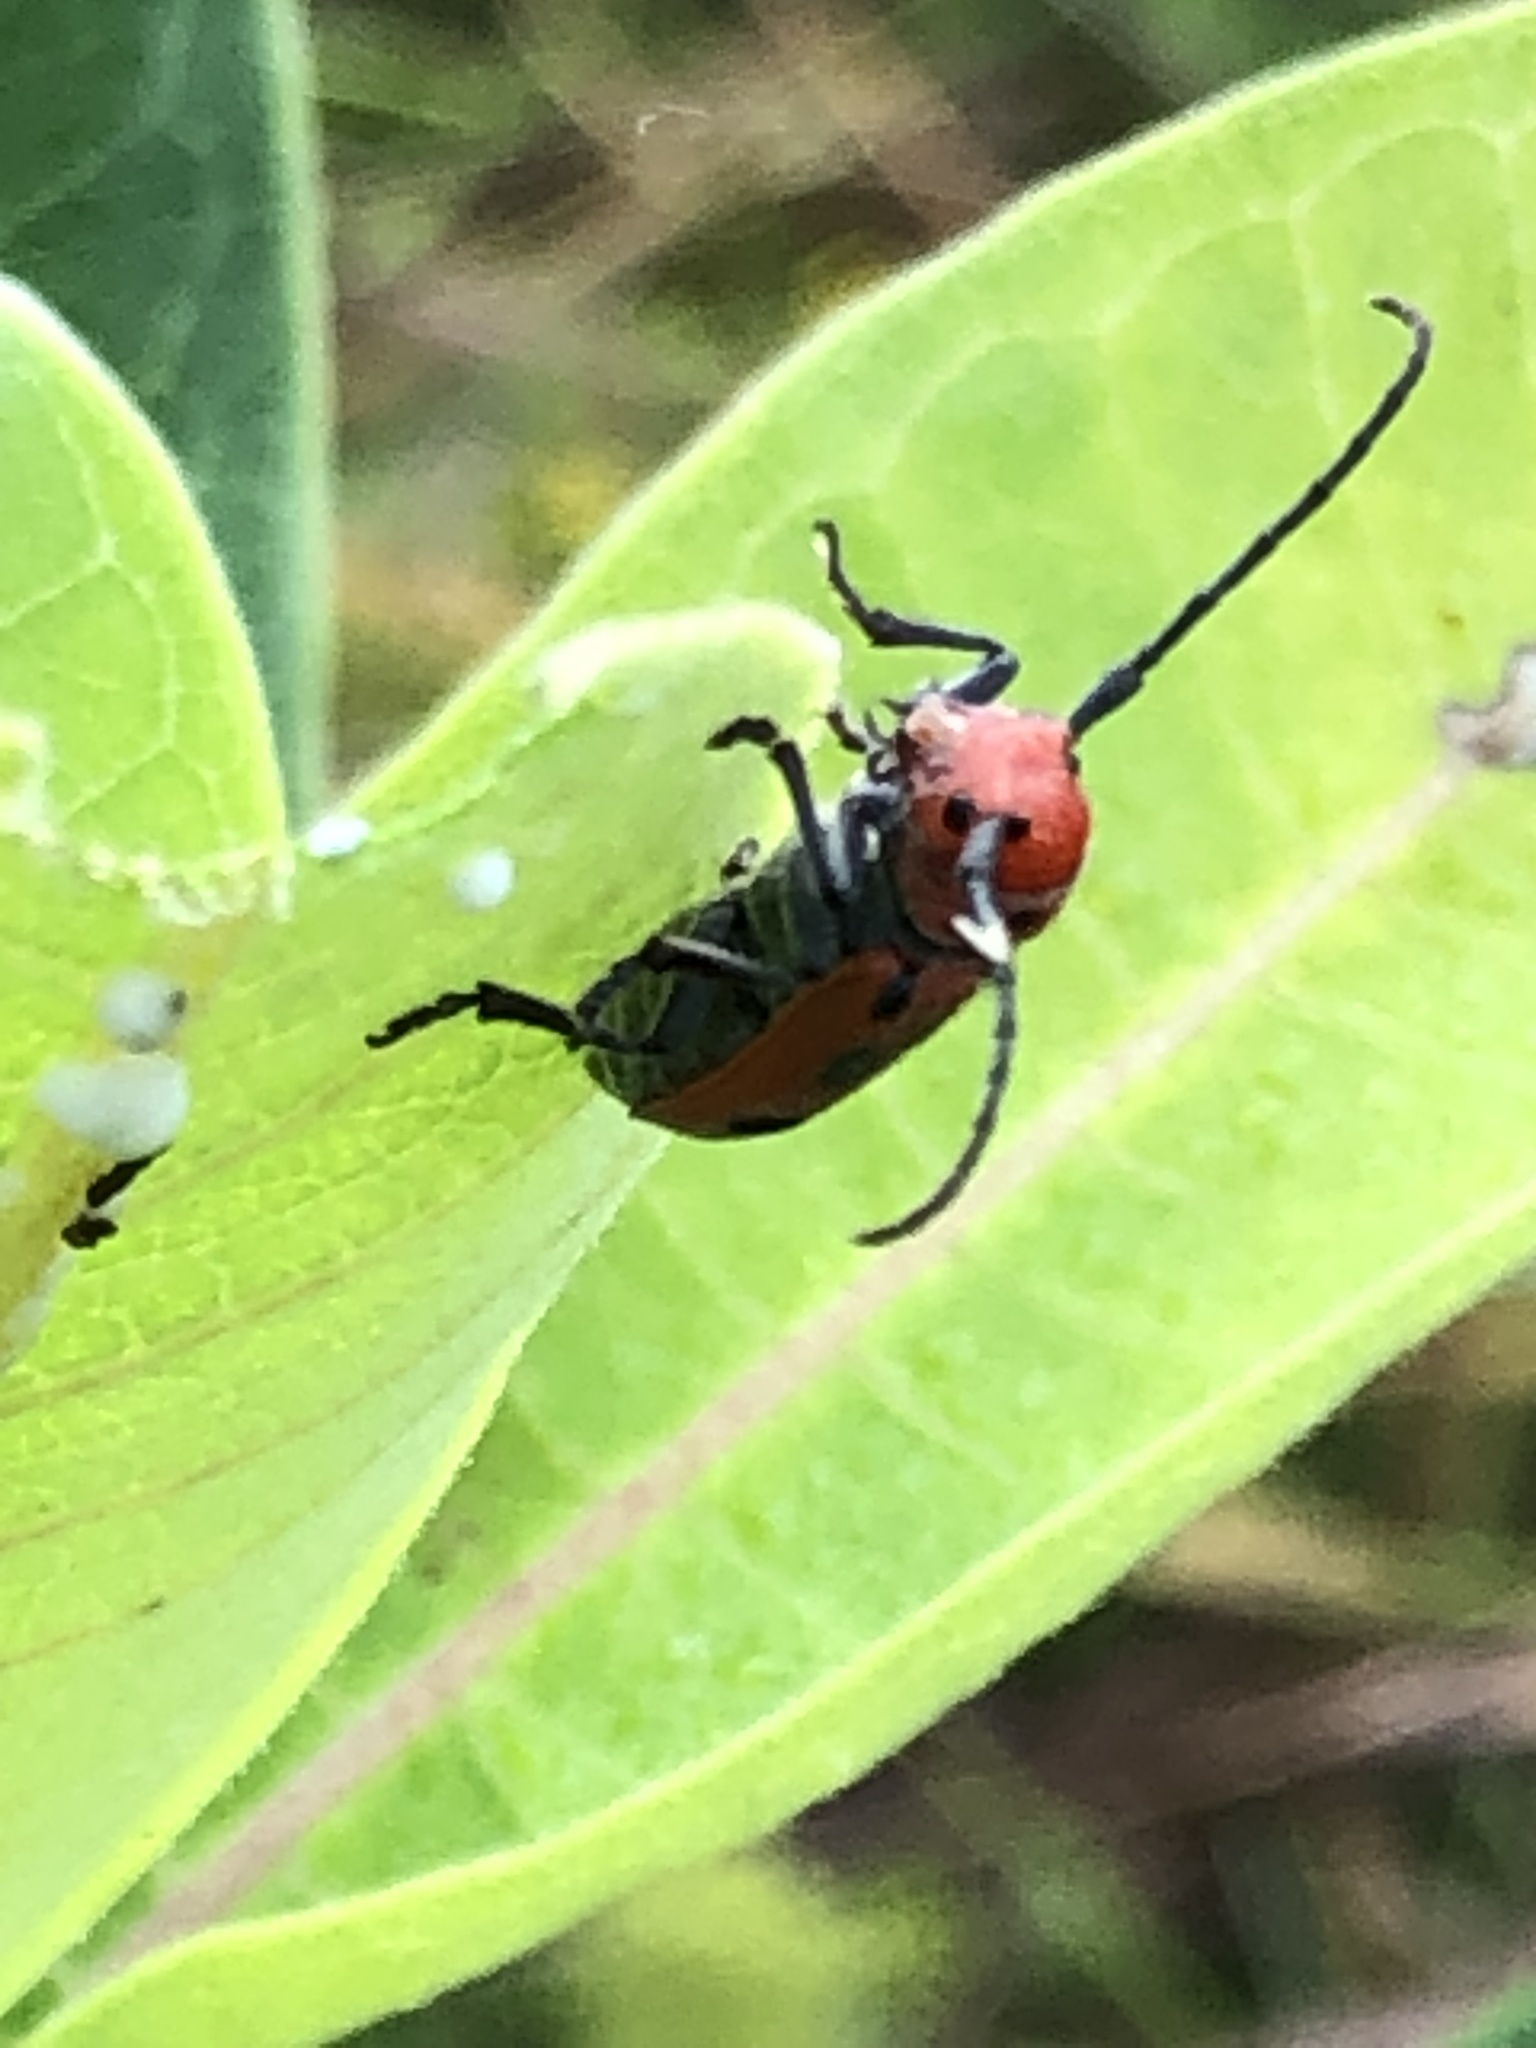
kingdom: Animalia
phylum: Arthropoda
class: Insecta
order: Coleoptera
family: Cerambycidae
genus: Tetraopes
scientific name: Tetraopes tetrophthalmus
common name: Red milkweed beetle
